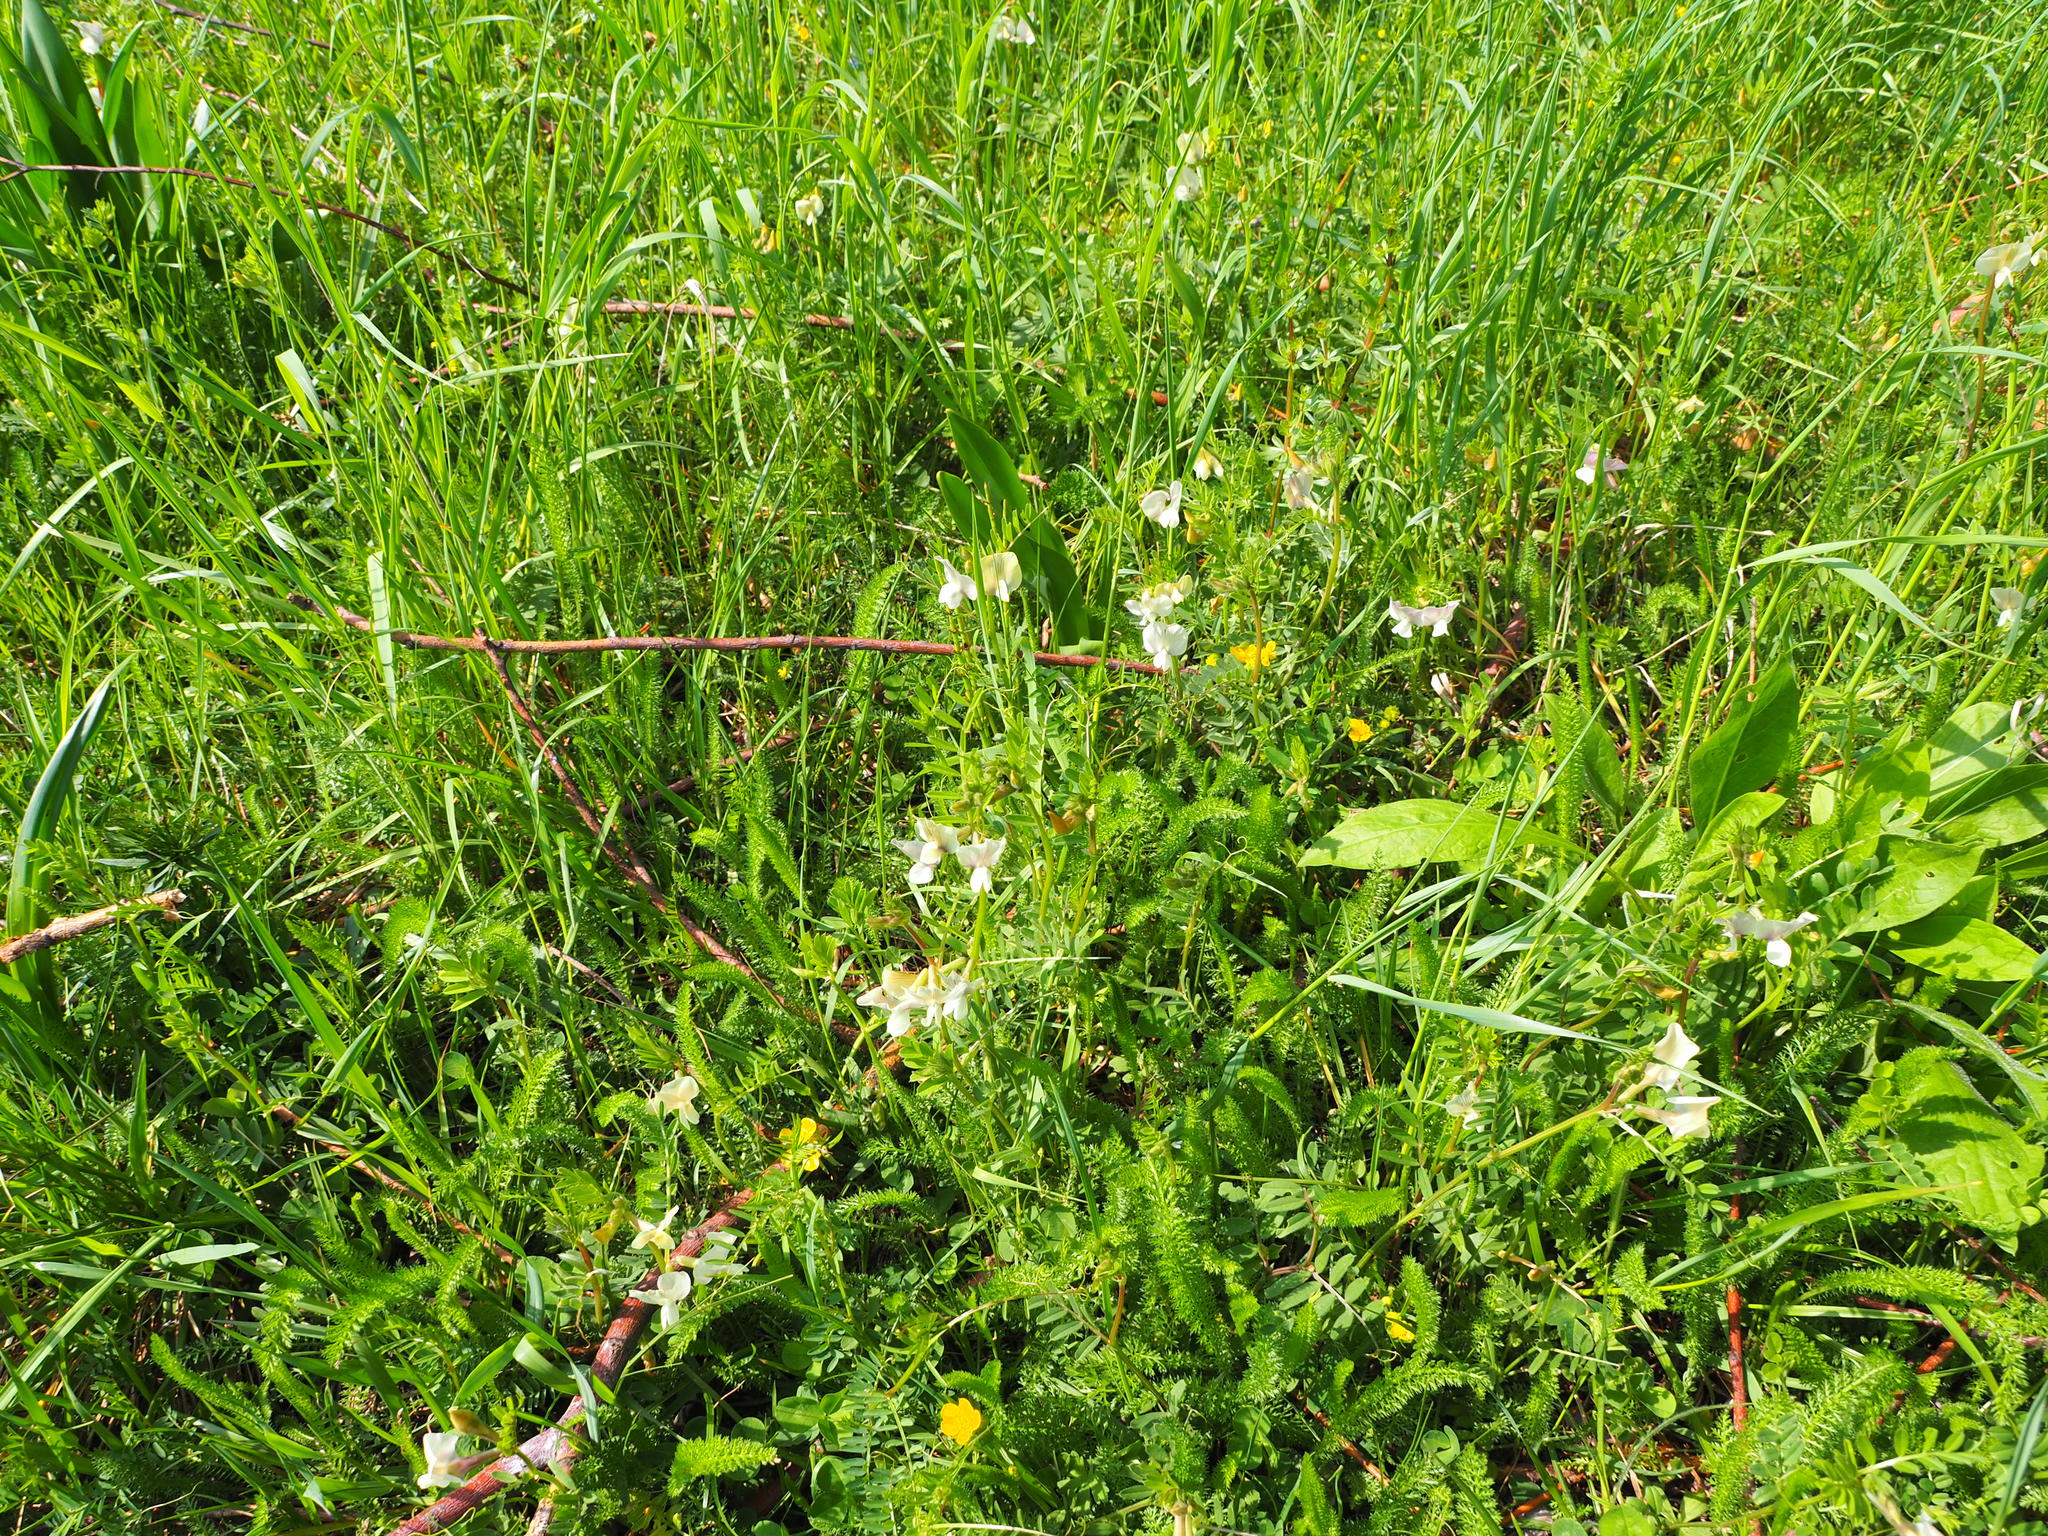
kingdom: Plantae
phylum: Tracheophyta
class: Magnoliopsida
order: Fabales
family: Fabaceae
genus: Vicia
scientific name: Vicia grandiflora
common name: Large yellow vetch
